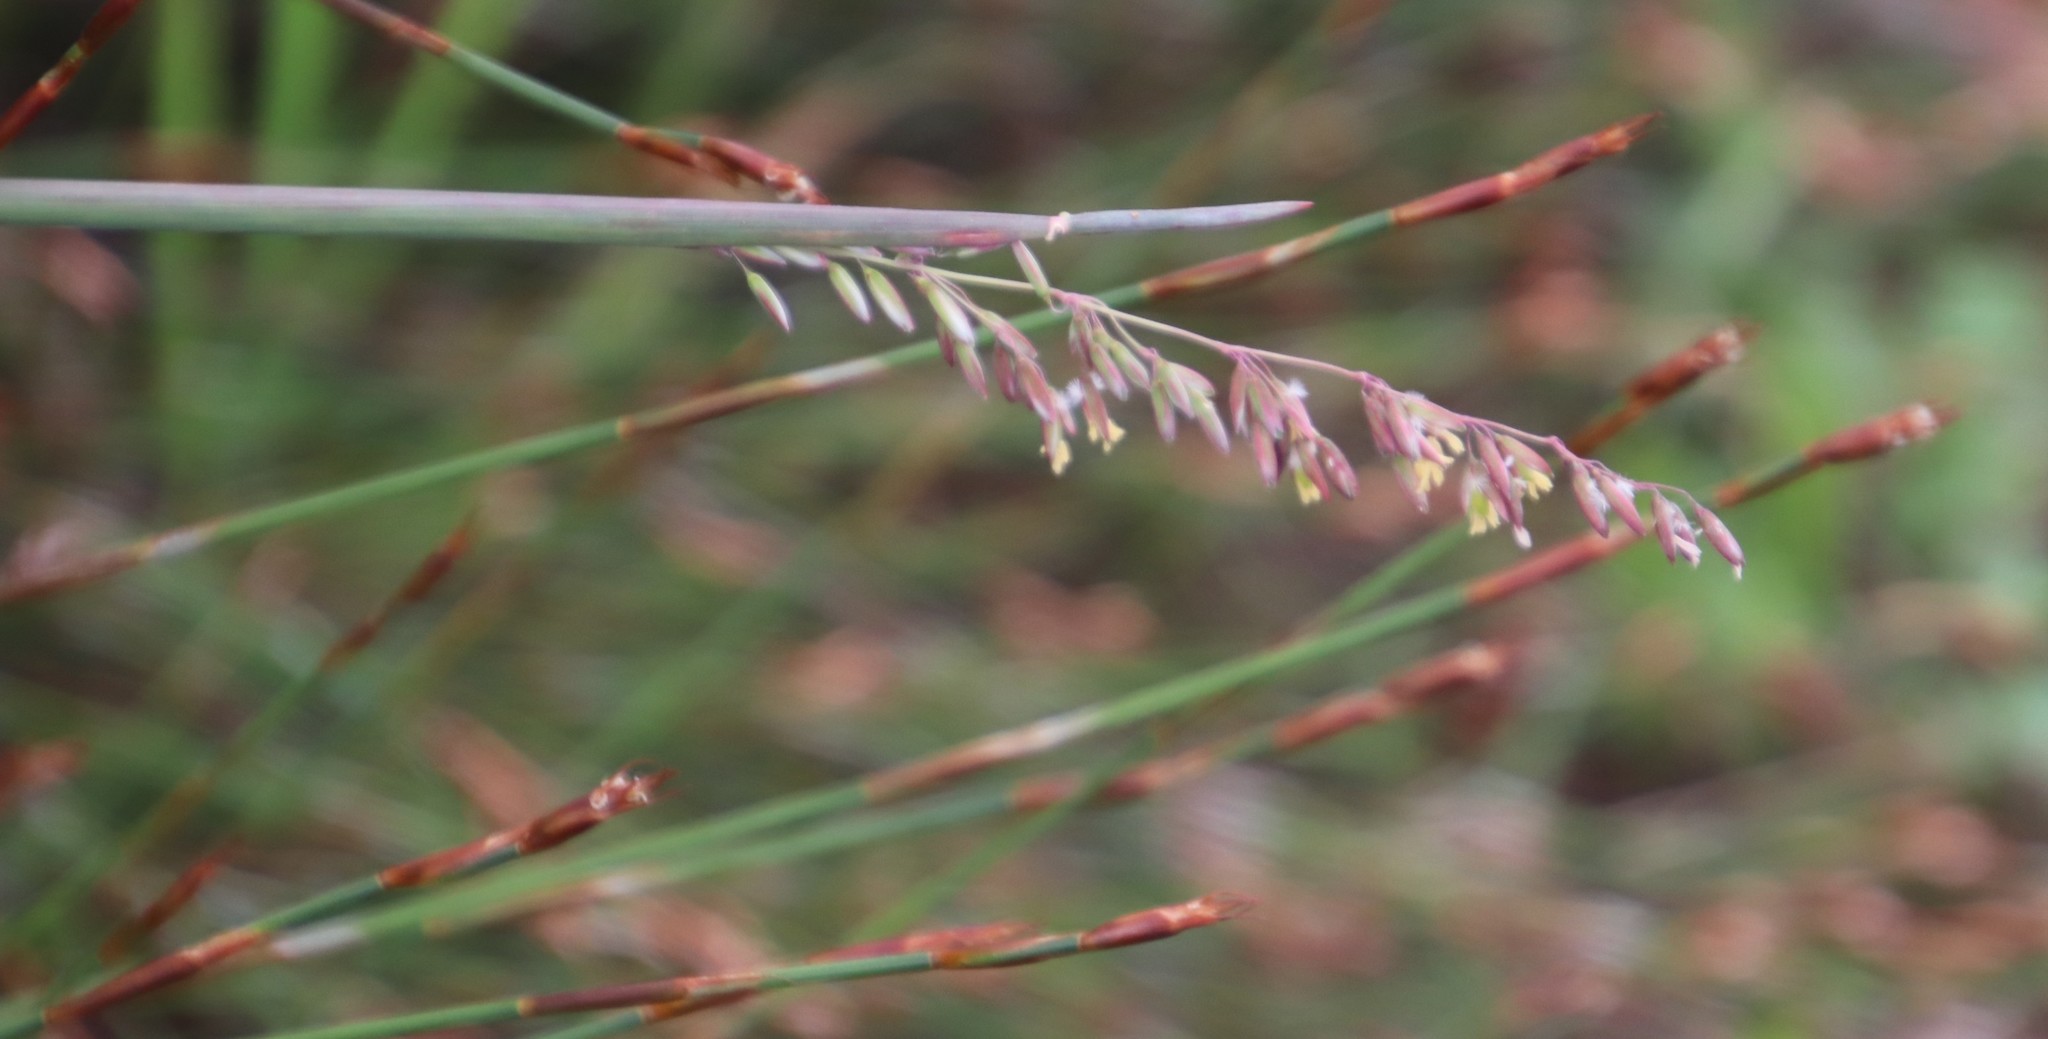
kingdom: Plantae
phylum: Tracheophyta
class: Liliopsida
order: Poales
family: Poaceae
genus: Ehrharta
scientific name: Ehrharta calycina
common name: Perennial veldtgrass
